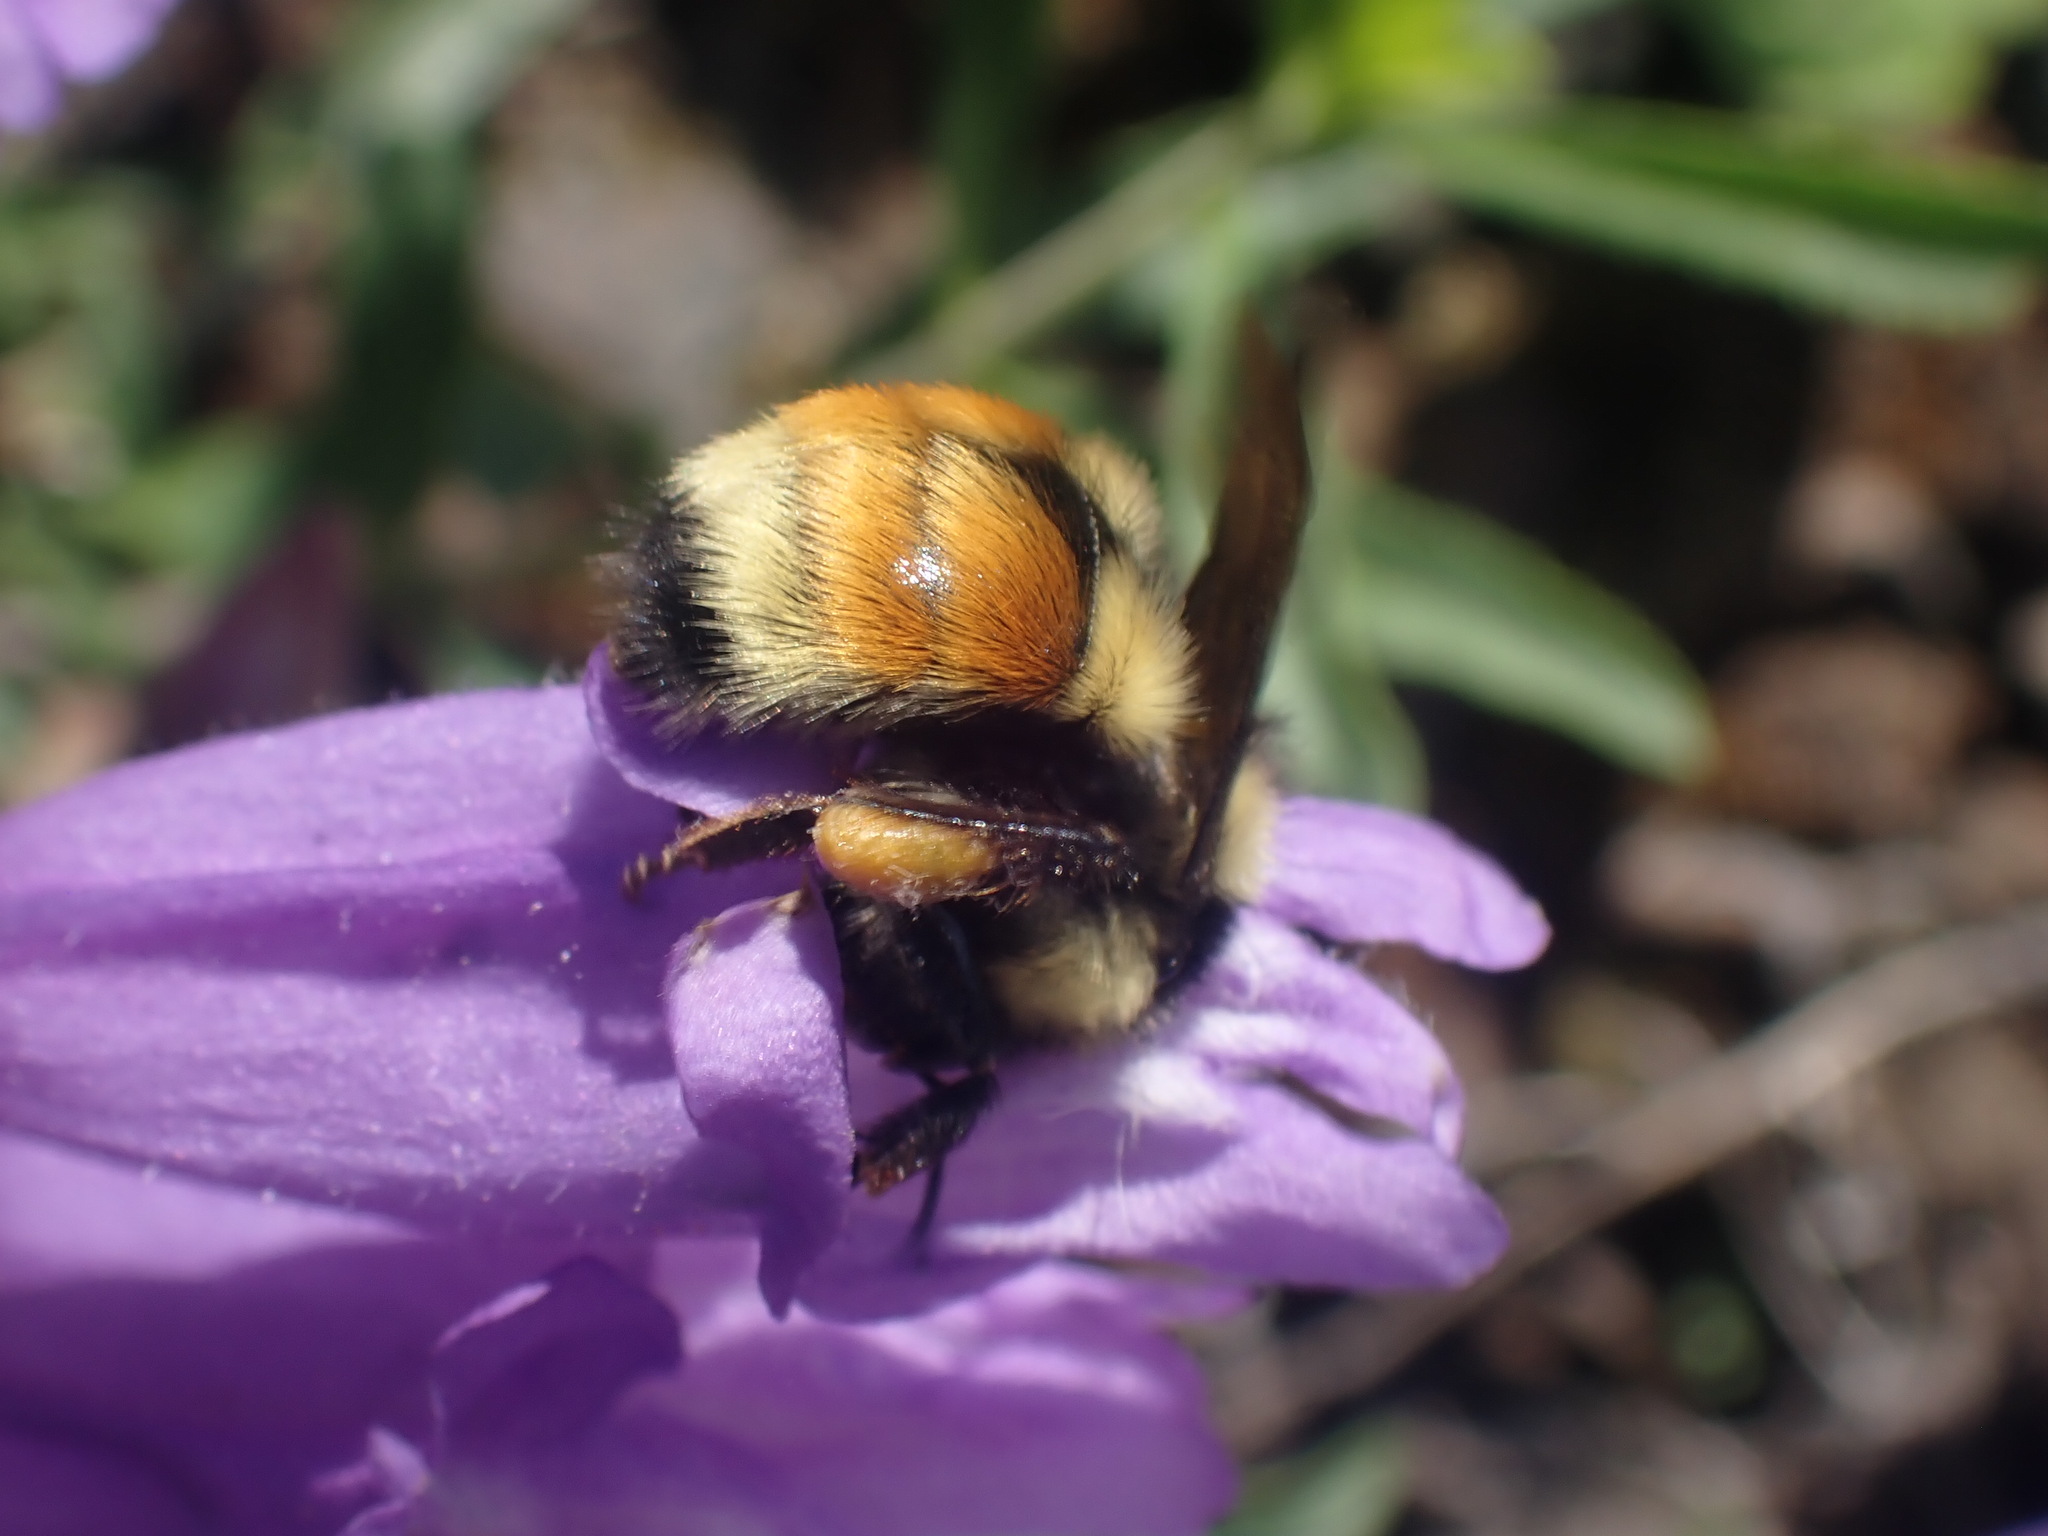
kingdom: Animalia
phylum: Arthropoda
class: Insecta
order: Hymenoptera
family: Apidae
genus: Bombus
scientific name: Bombus vancouverensis
